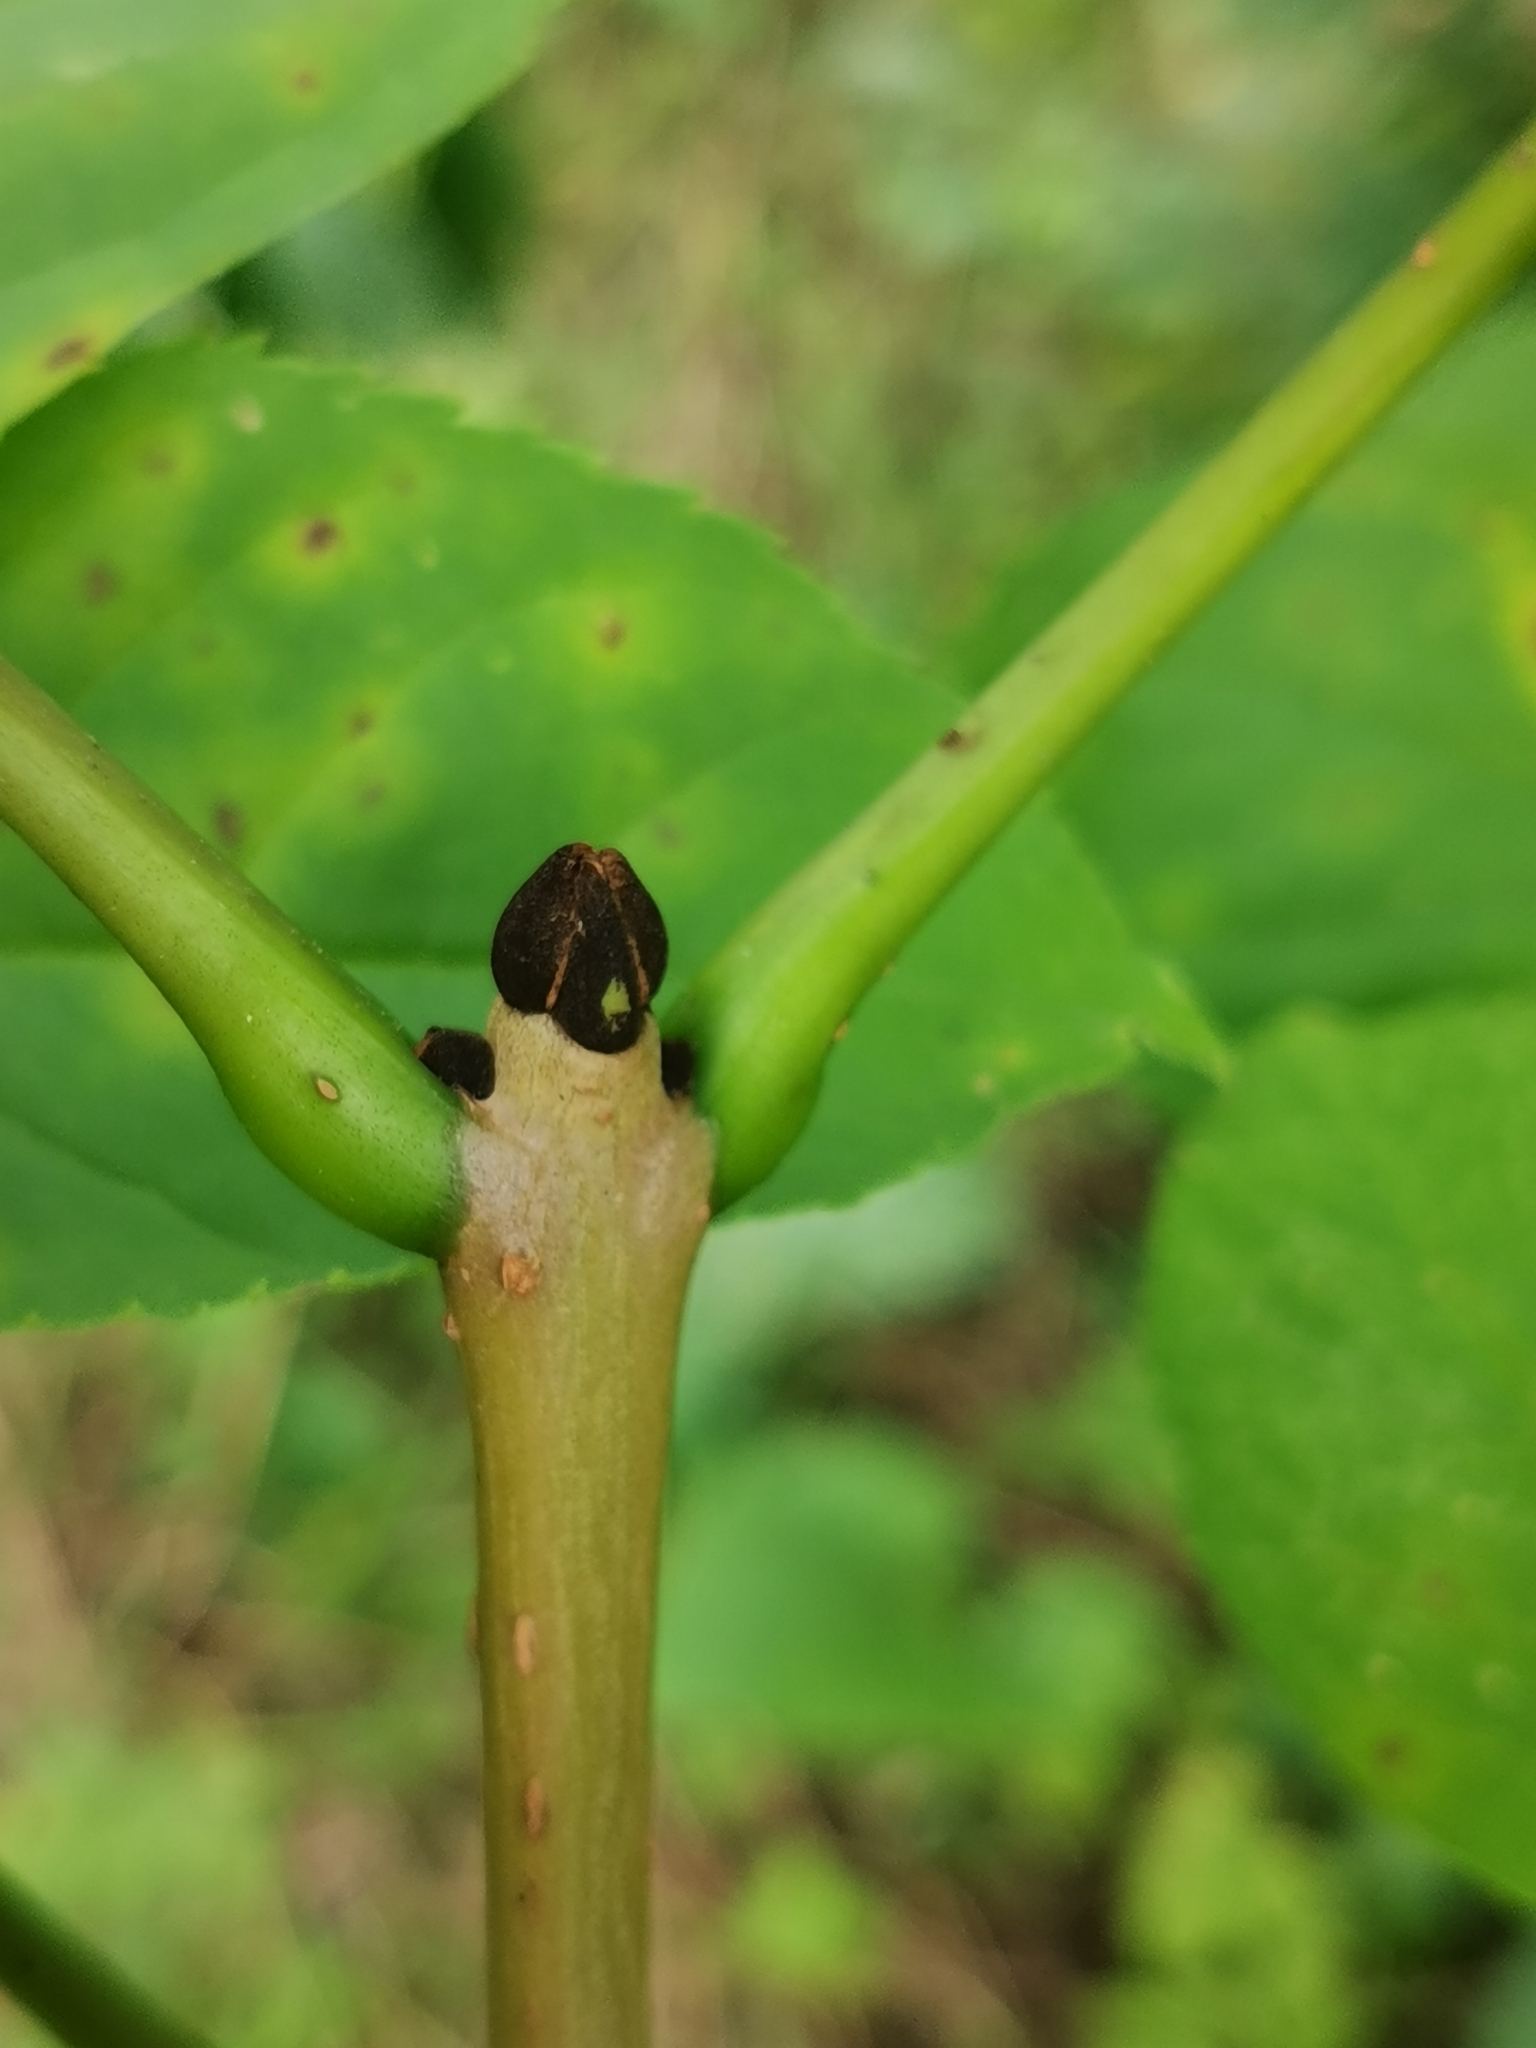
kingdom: Plantae
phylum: Tracheophyta
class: Magnoliopsida
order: Lamiales
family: Oleaceae
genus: Fraxinus
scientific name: Fraxinus mandshurica
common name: Manchurian ash
